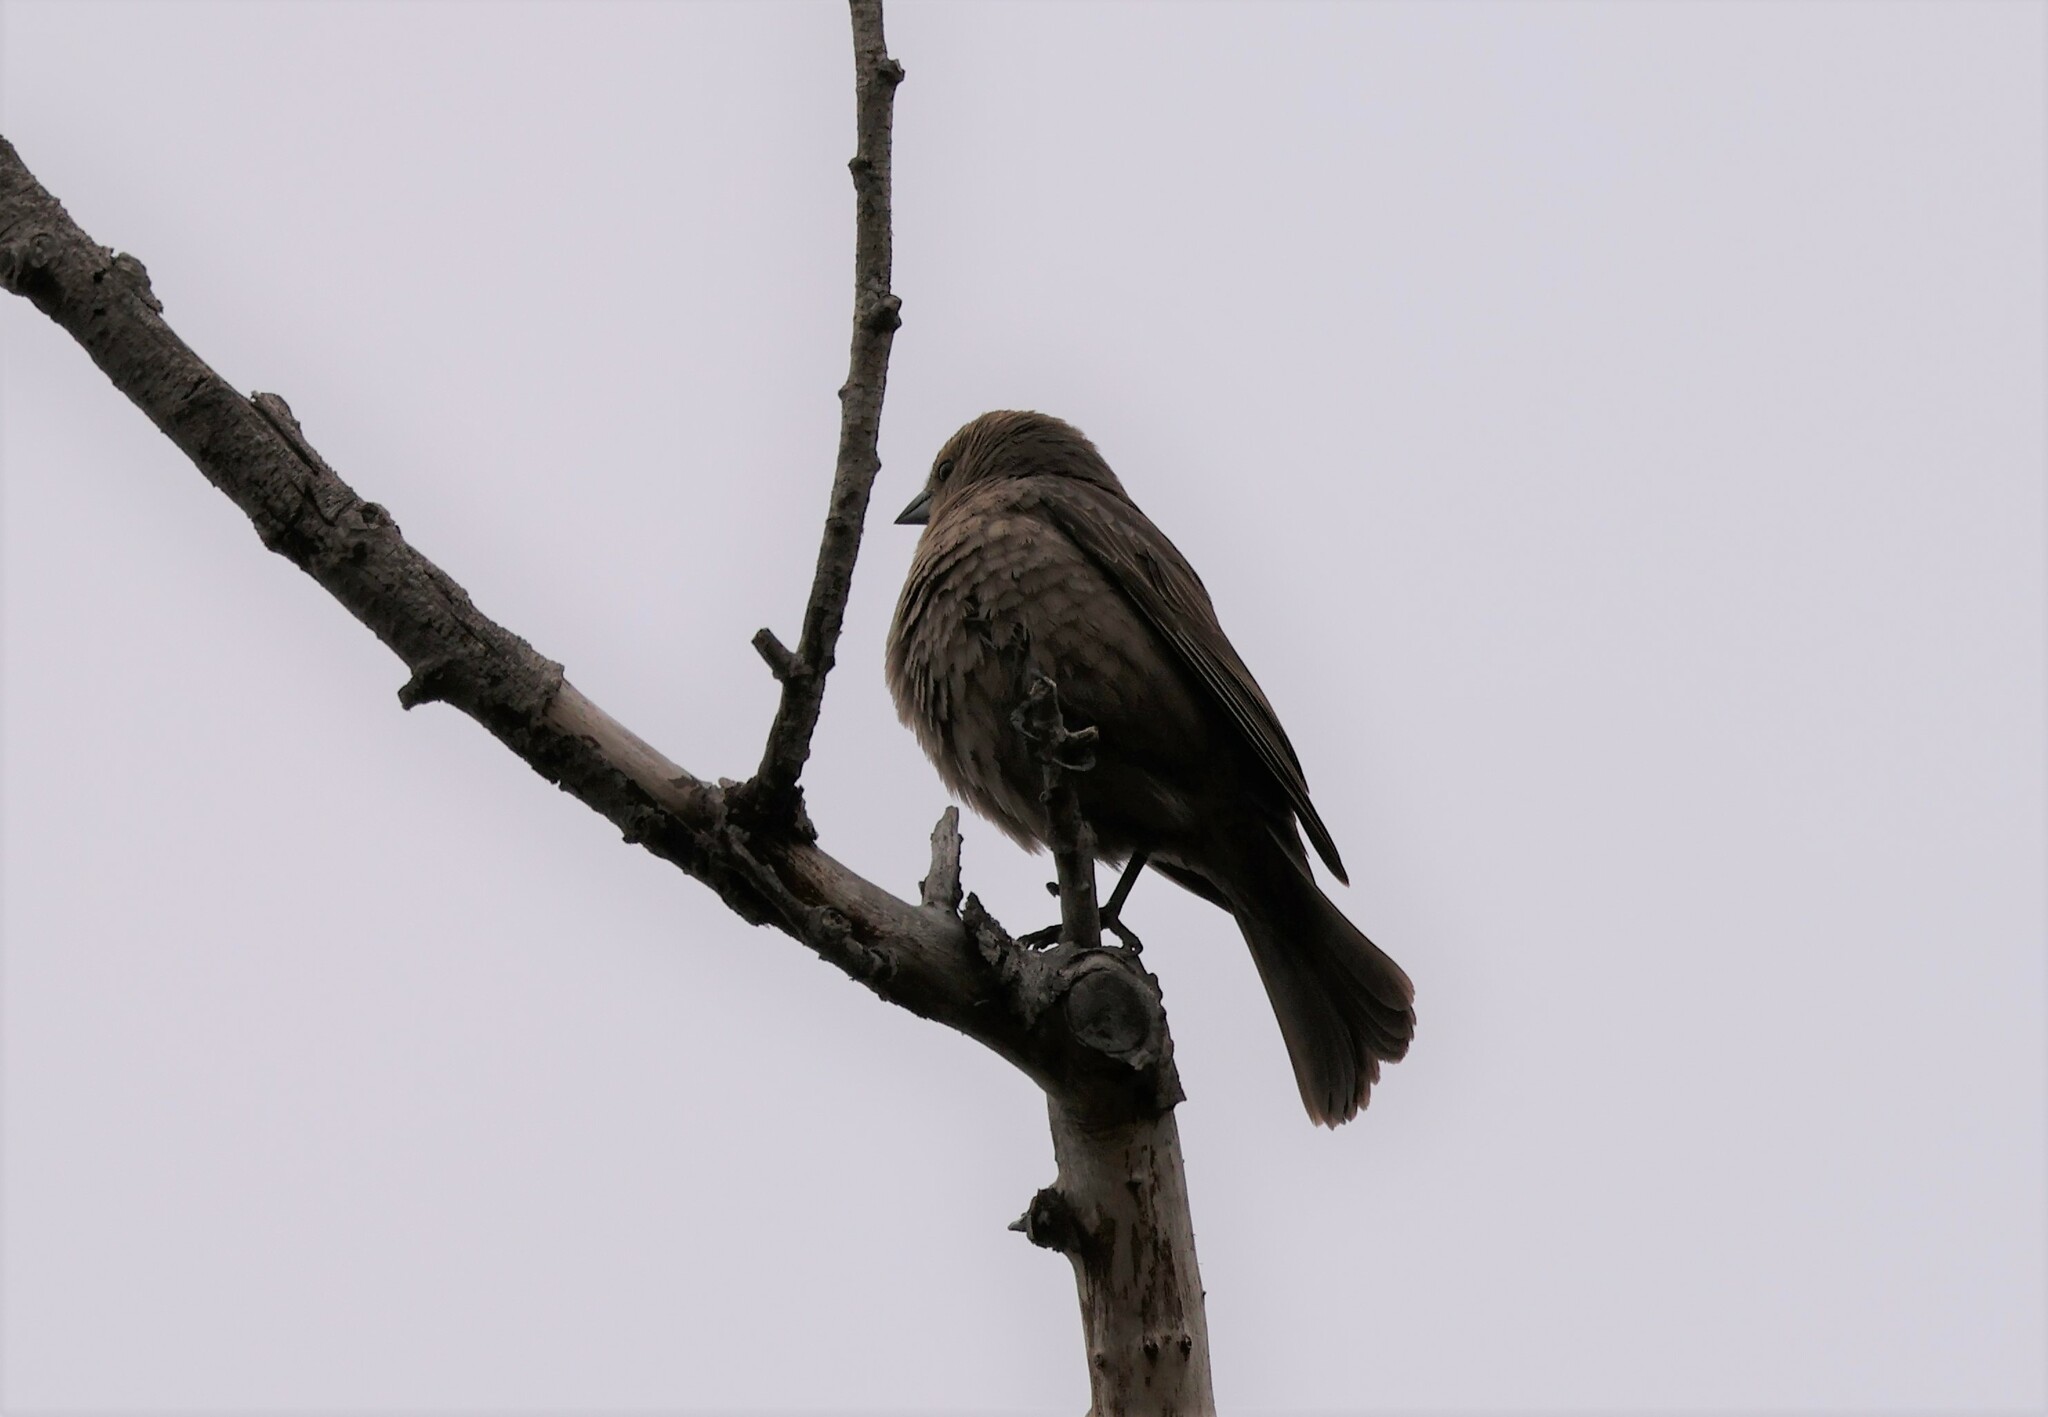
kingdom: Animalia
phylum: Chordata
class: Aves
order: Passeriformes
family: Icteridae
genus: Molothrus
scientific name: Molothrus ater
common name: Brown-headed cowbird
